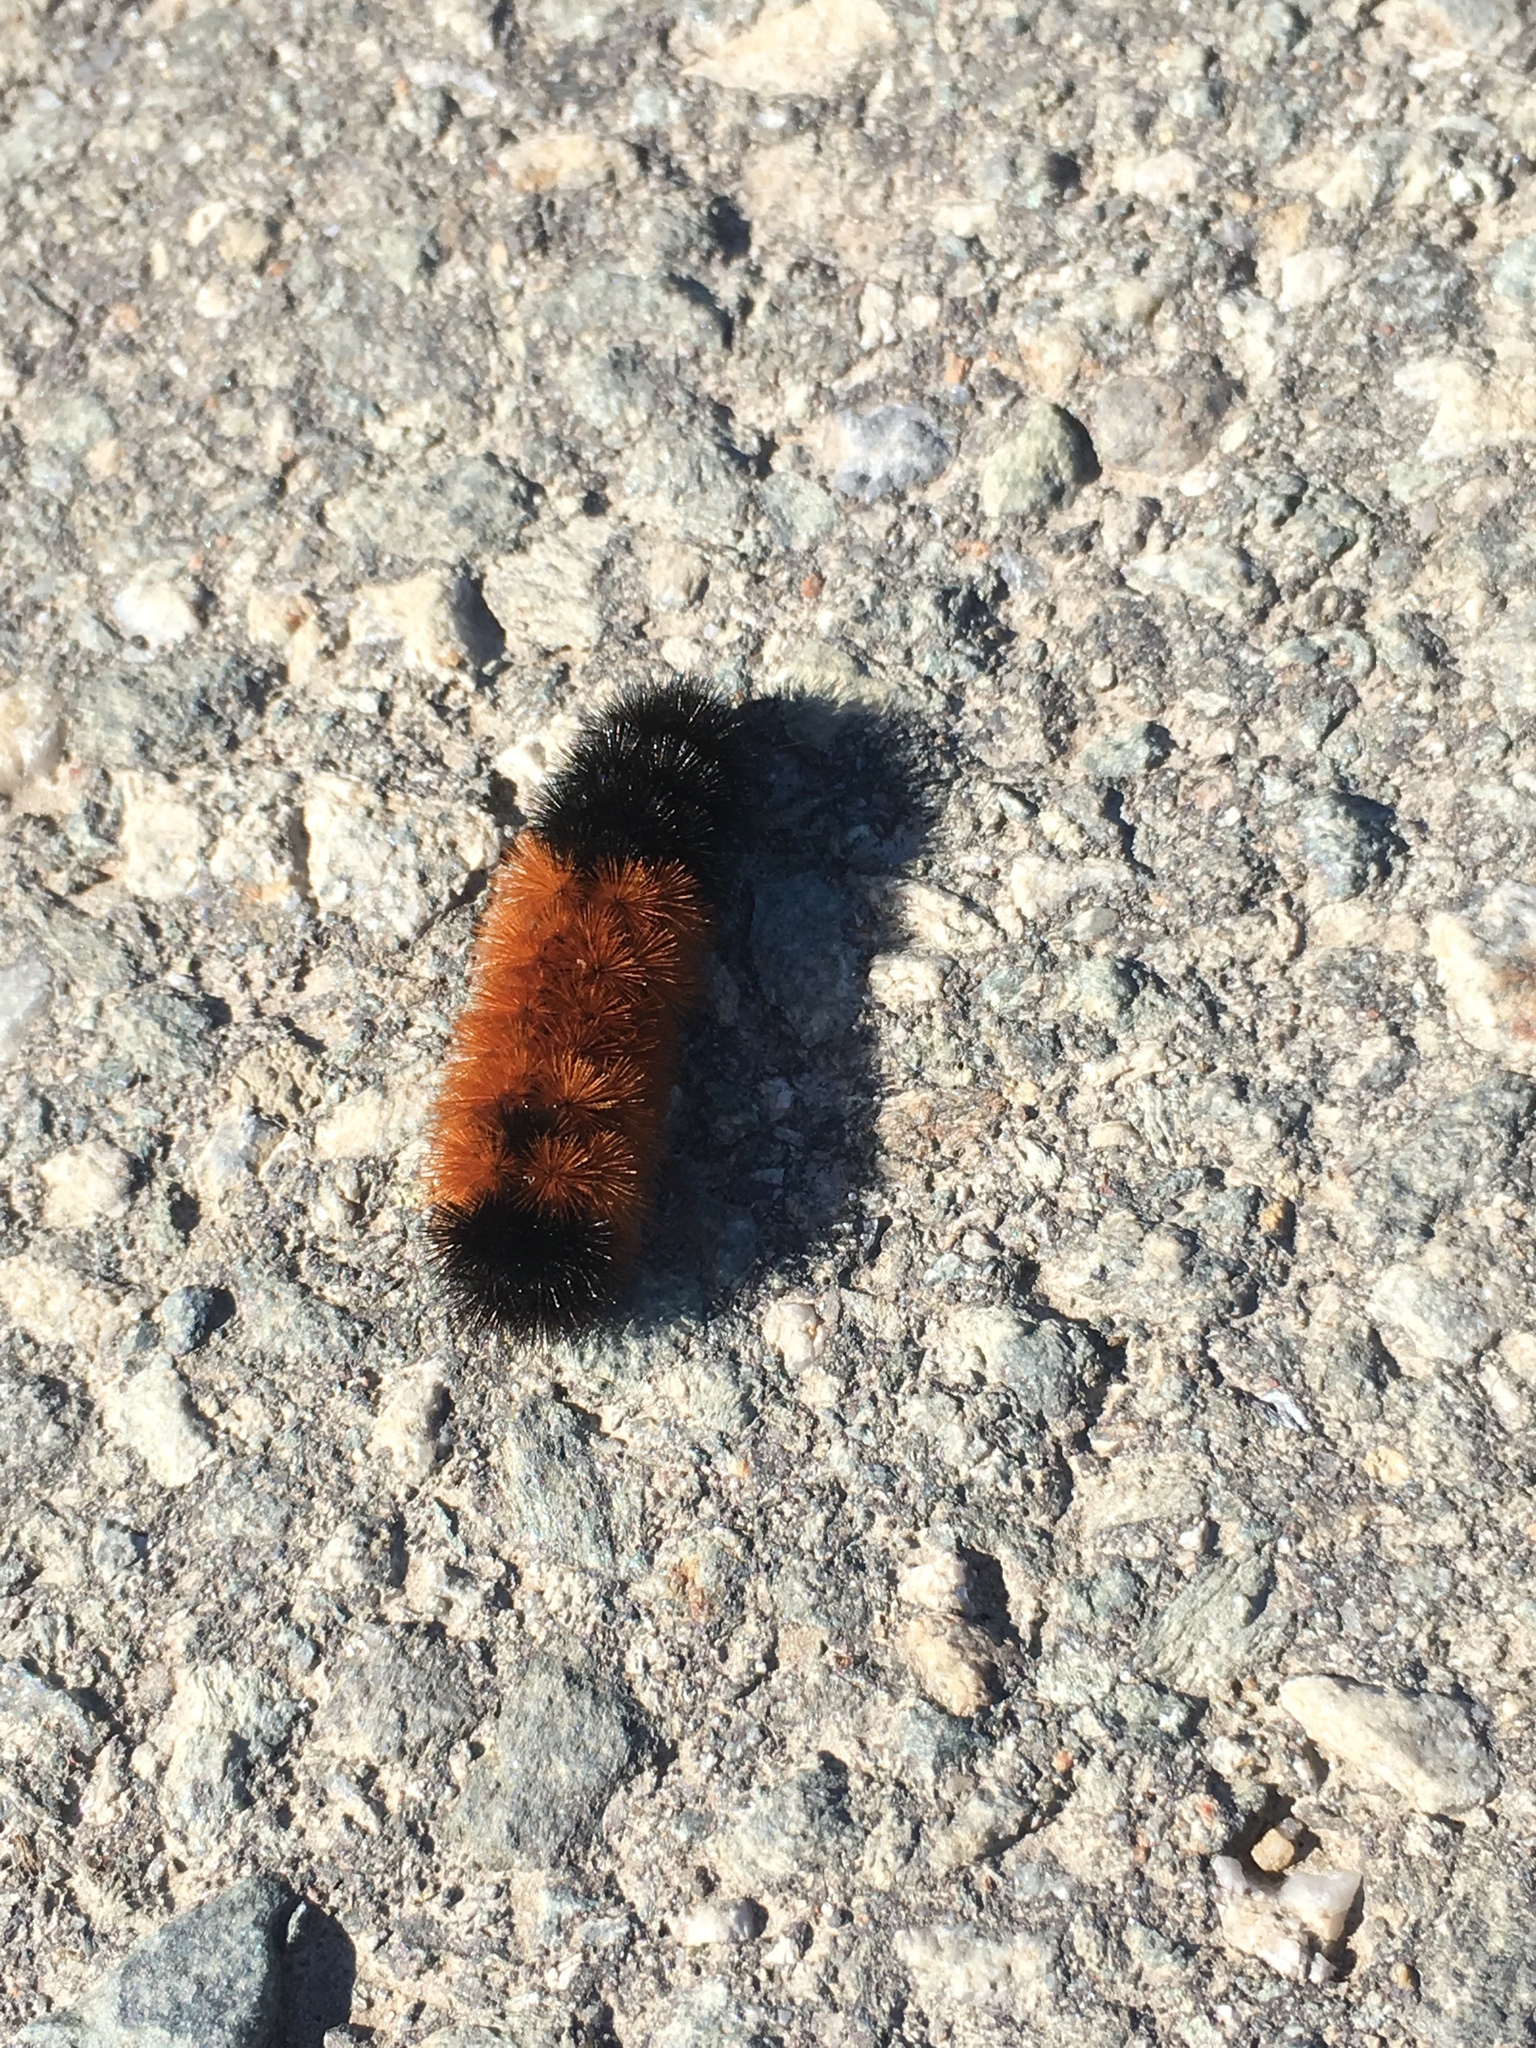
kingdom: Animalia
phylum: Arthropoda
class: Insecta
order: Lepidoptera
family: Erebidae
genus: Pyrrharctia
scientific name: Pyrrharctia isabella
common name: Isabella tiger moth
